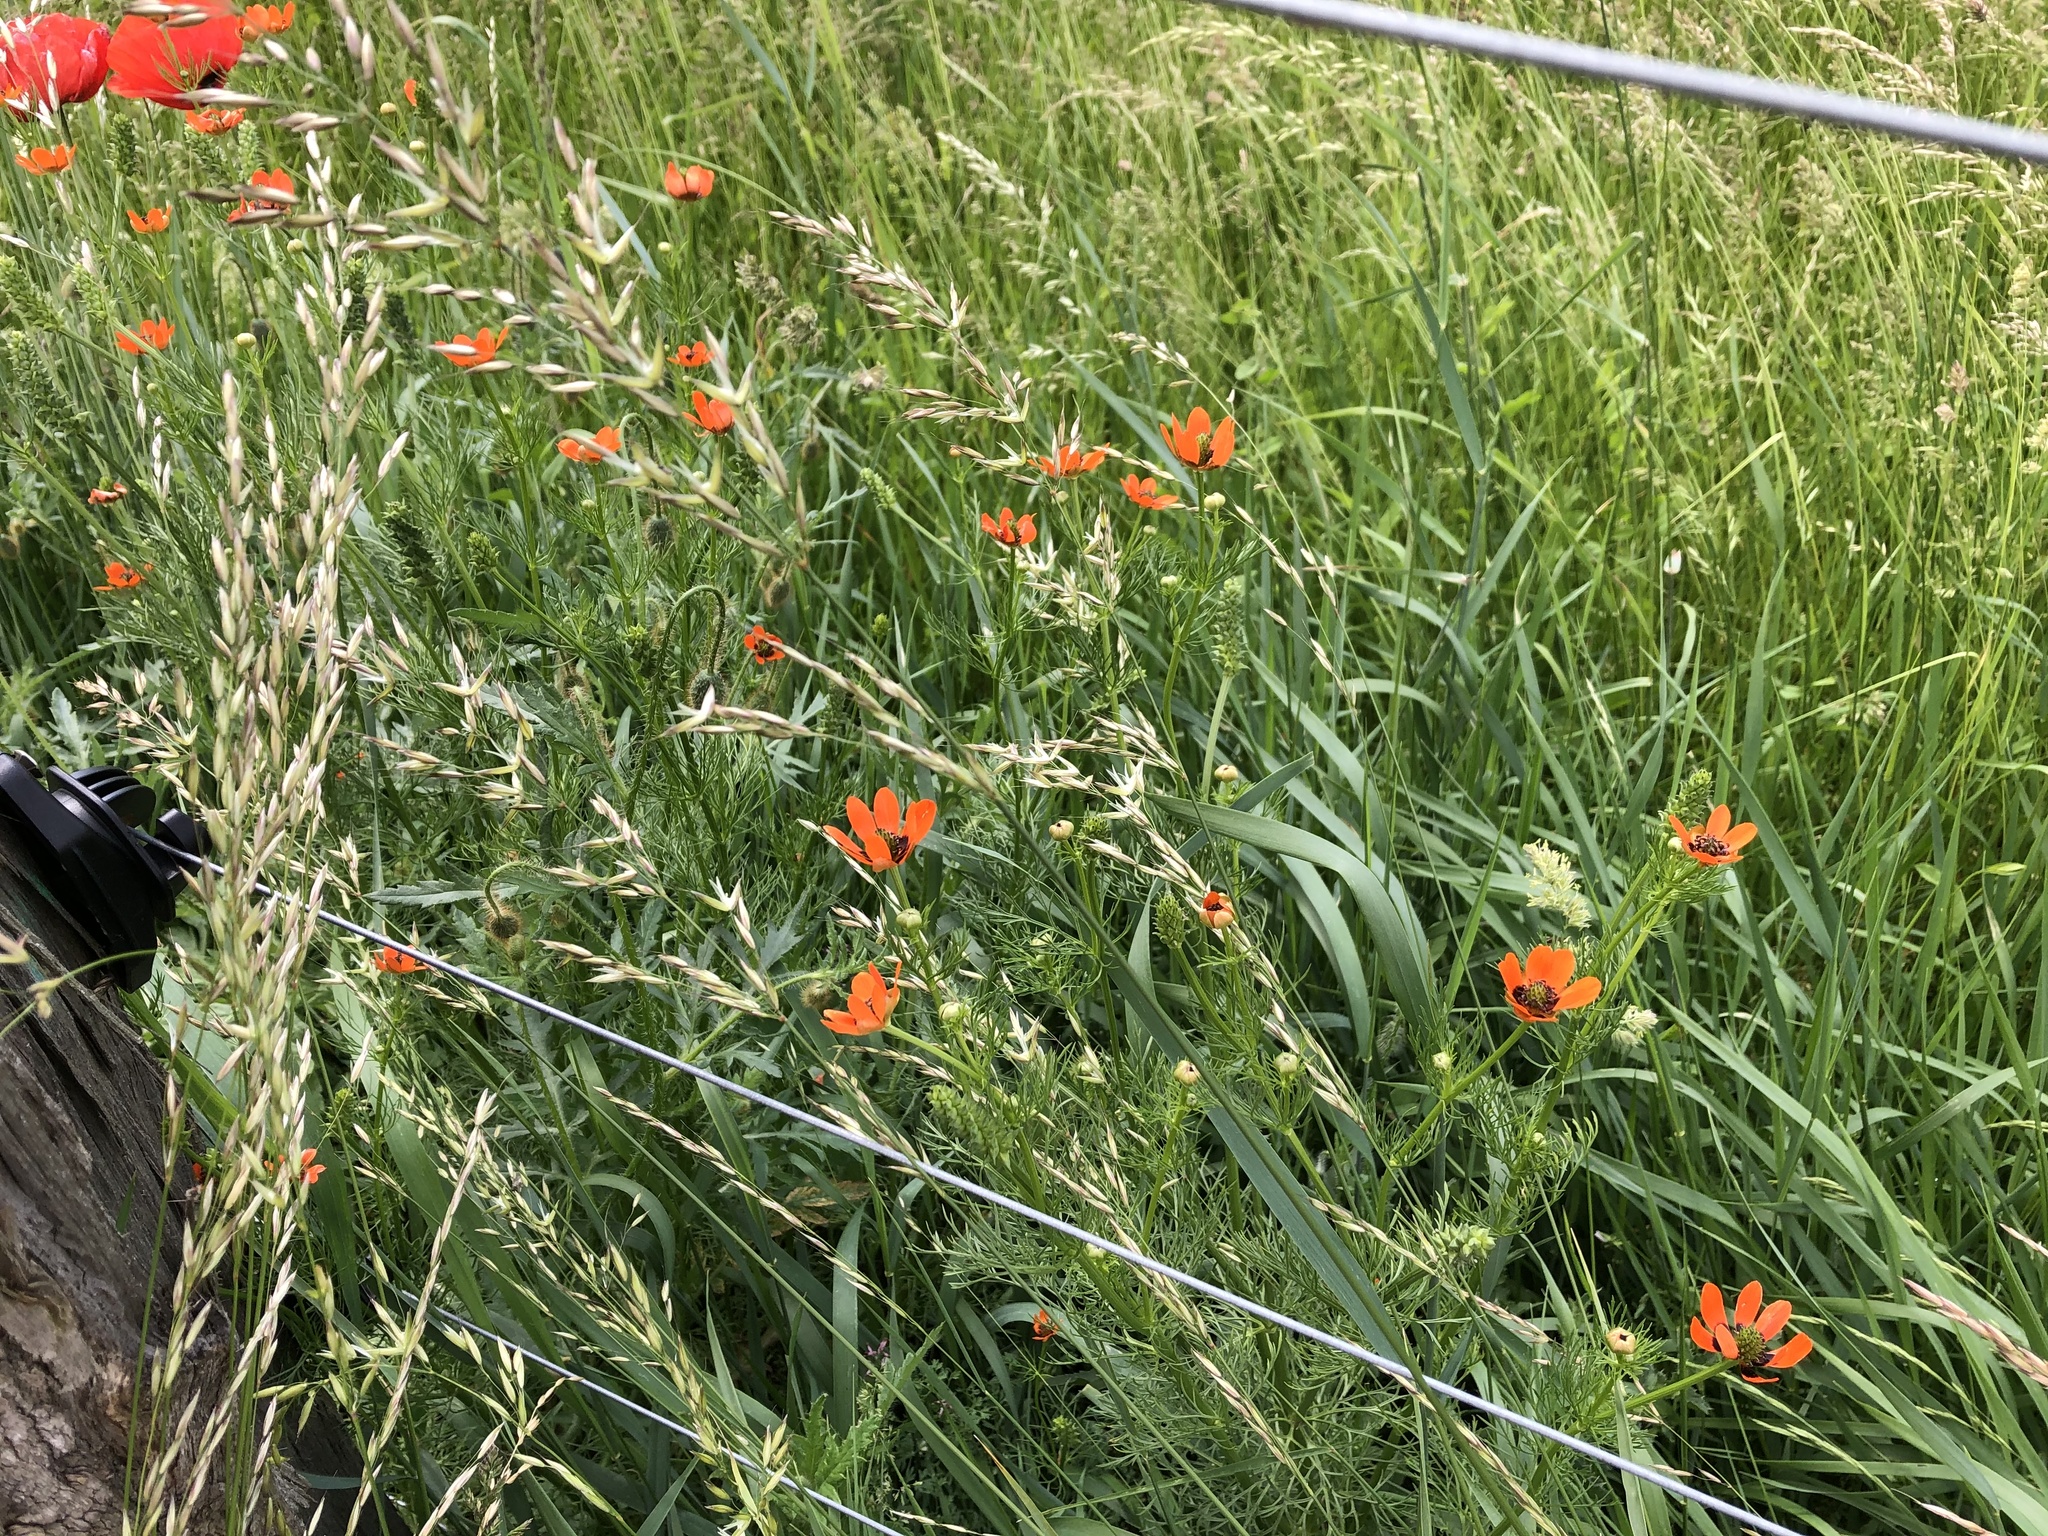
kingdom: Plantae
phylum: Tracheophyta
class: Magnoliopsida
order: Ranunculales
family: Ranunculaceae
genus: Adonis
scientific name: Adonis aestivalis
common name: Summer pheasant's-eye
